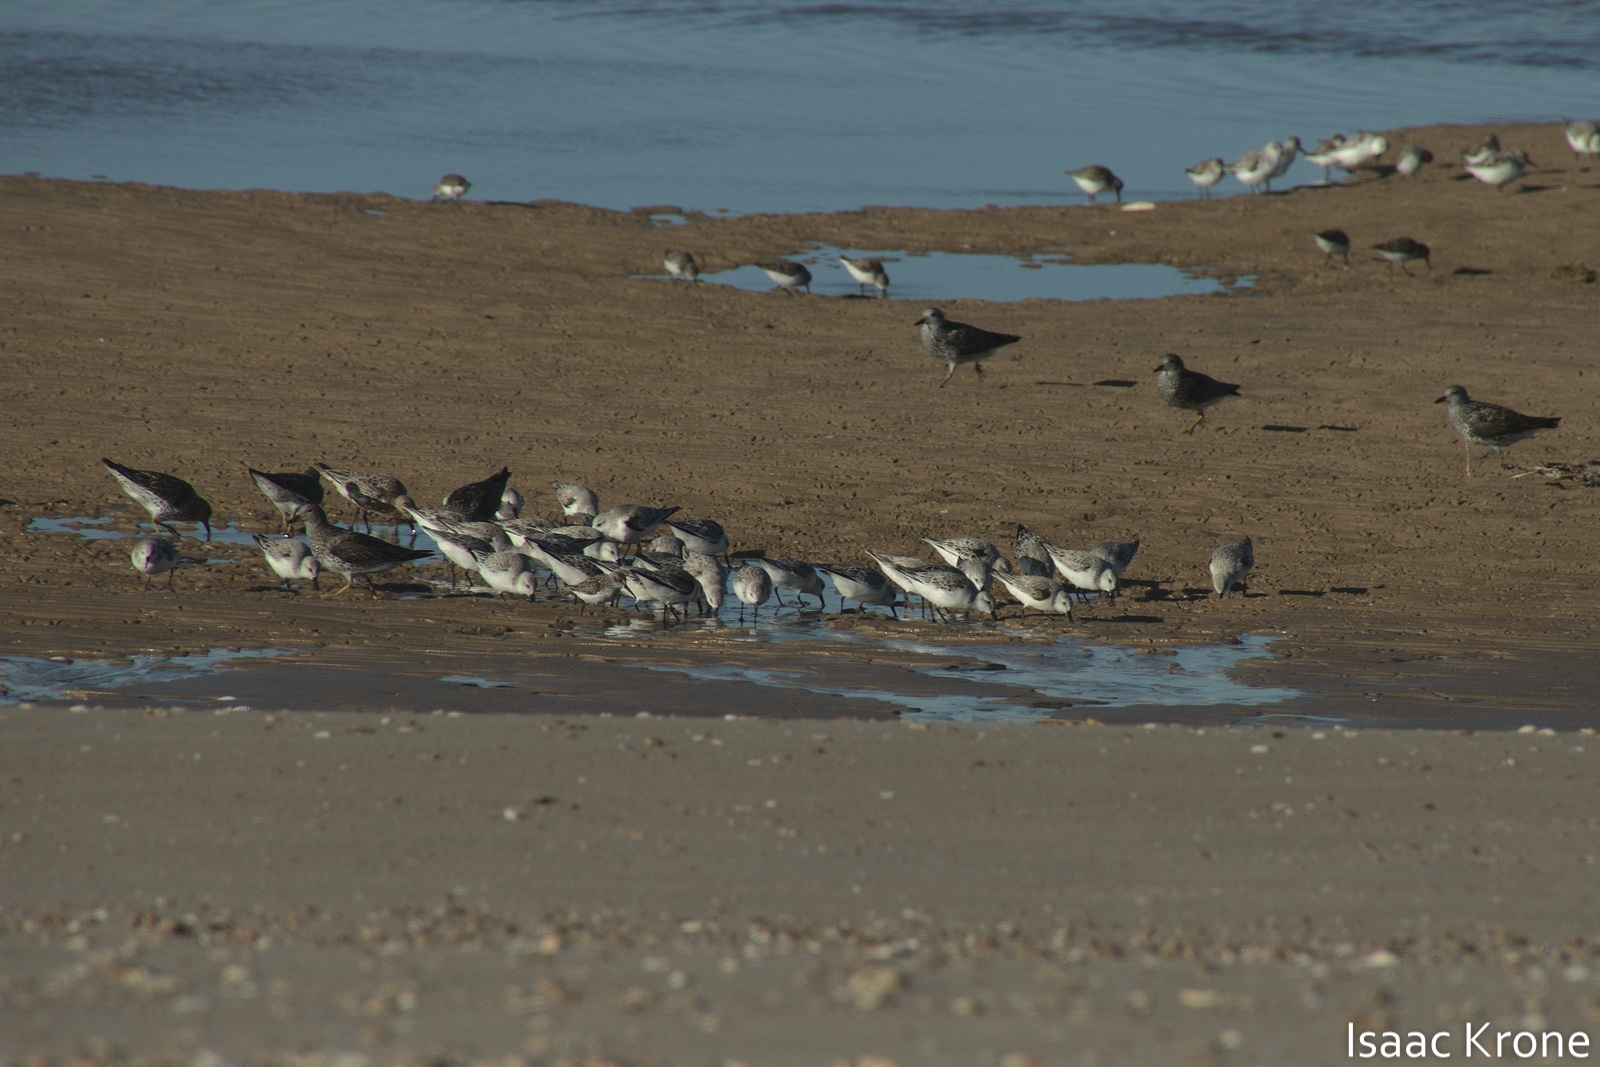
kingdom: Animalia
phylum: Chordata
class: Aves
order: Charadriiformes
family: Scolopacidae
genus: Calidris
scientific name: Calidris virgata
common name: Surfbird
